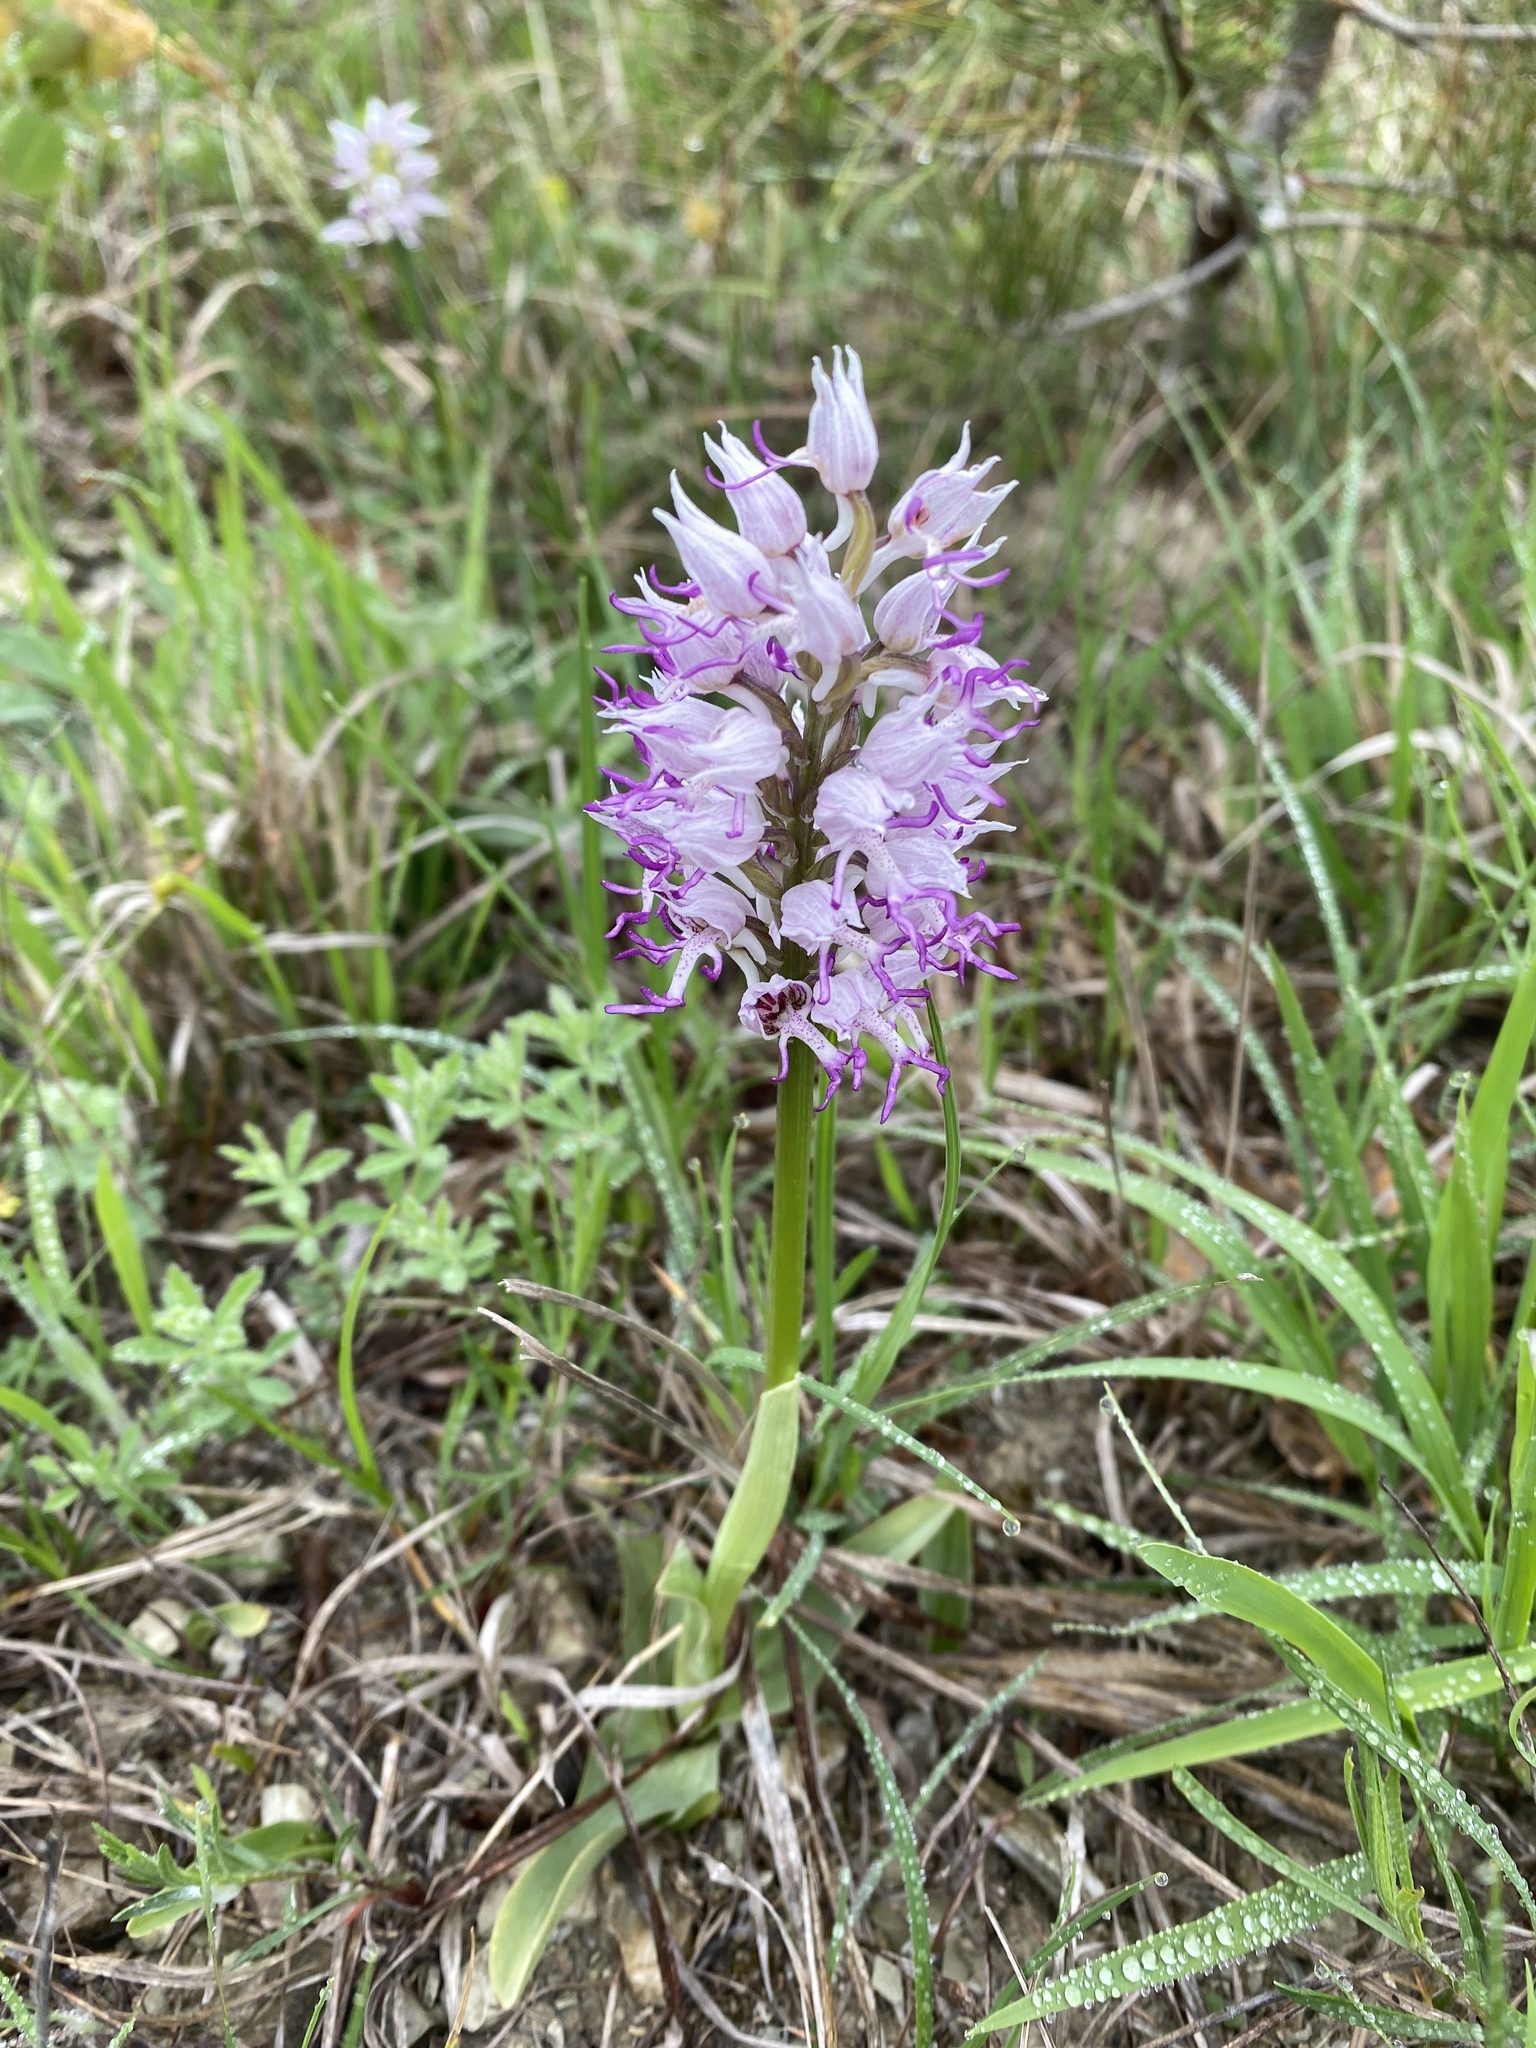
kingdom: Plantae
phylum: Tracheophyta
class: Liliopsida
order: Asparagales
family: Orchidaceae
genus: Orchis
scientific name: Orchis simia
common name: Monkey orchid
